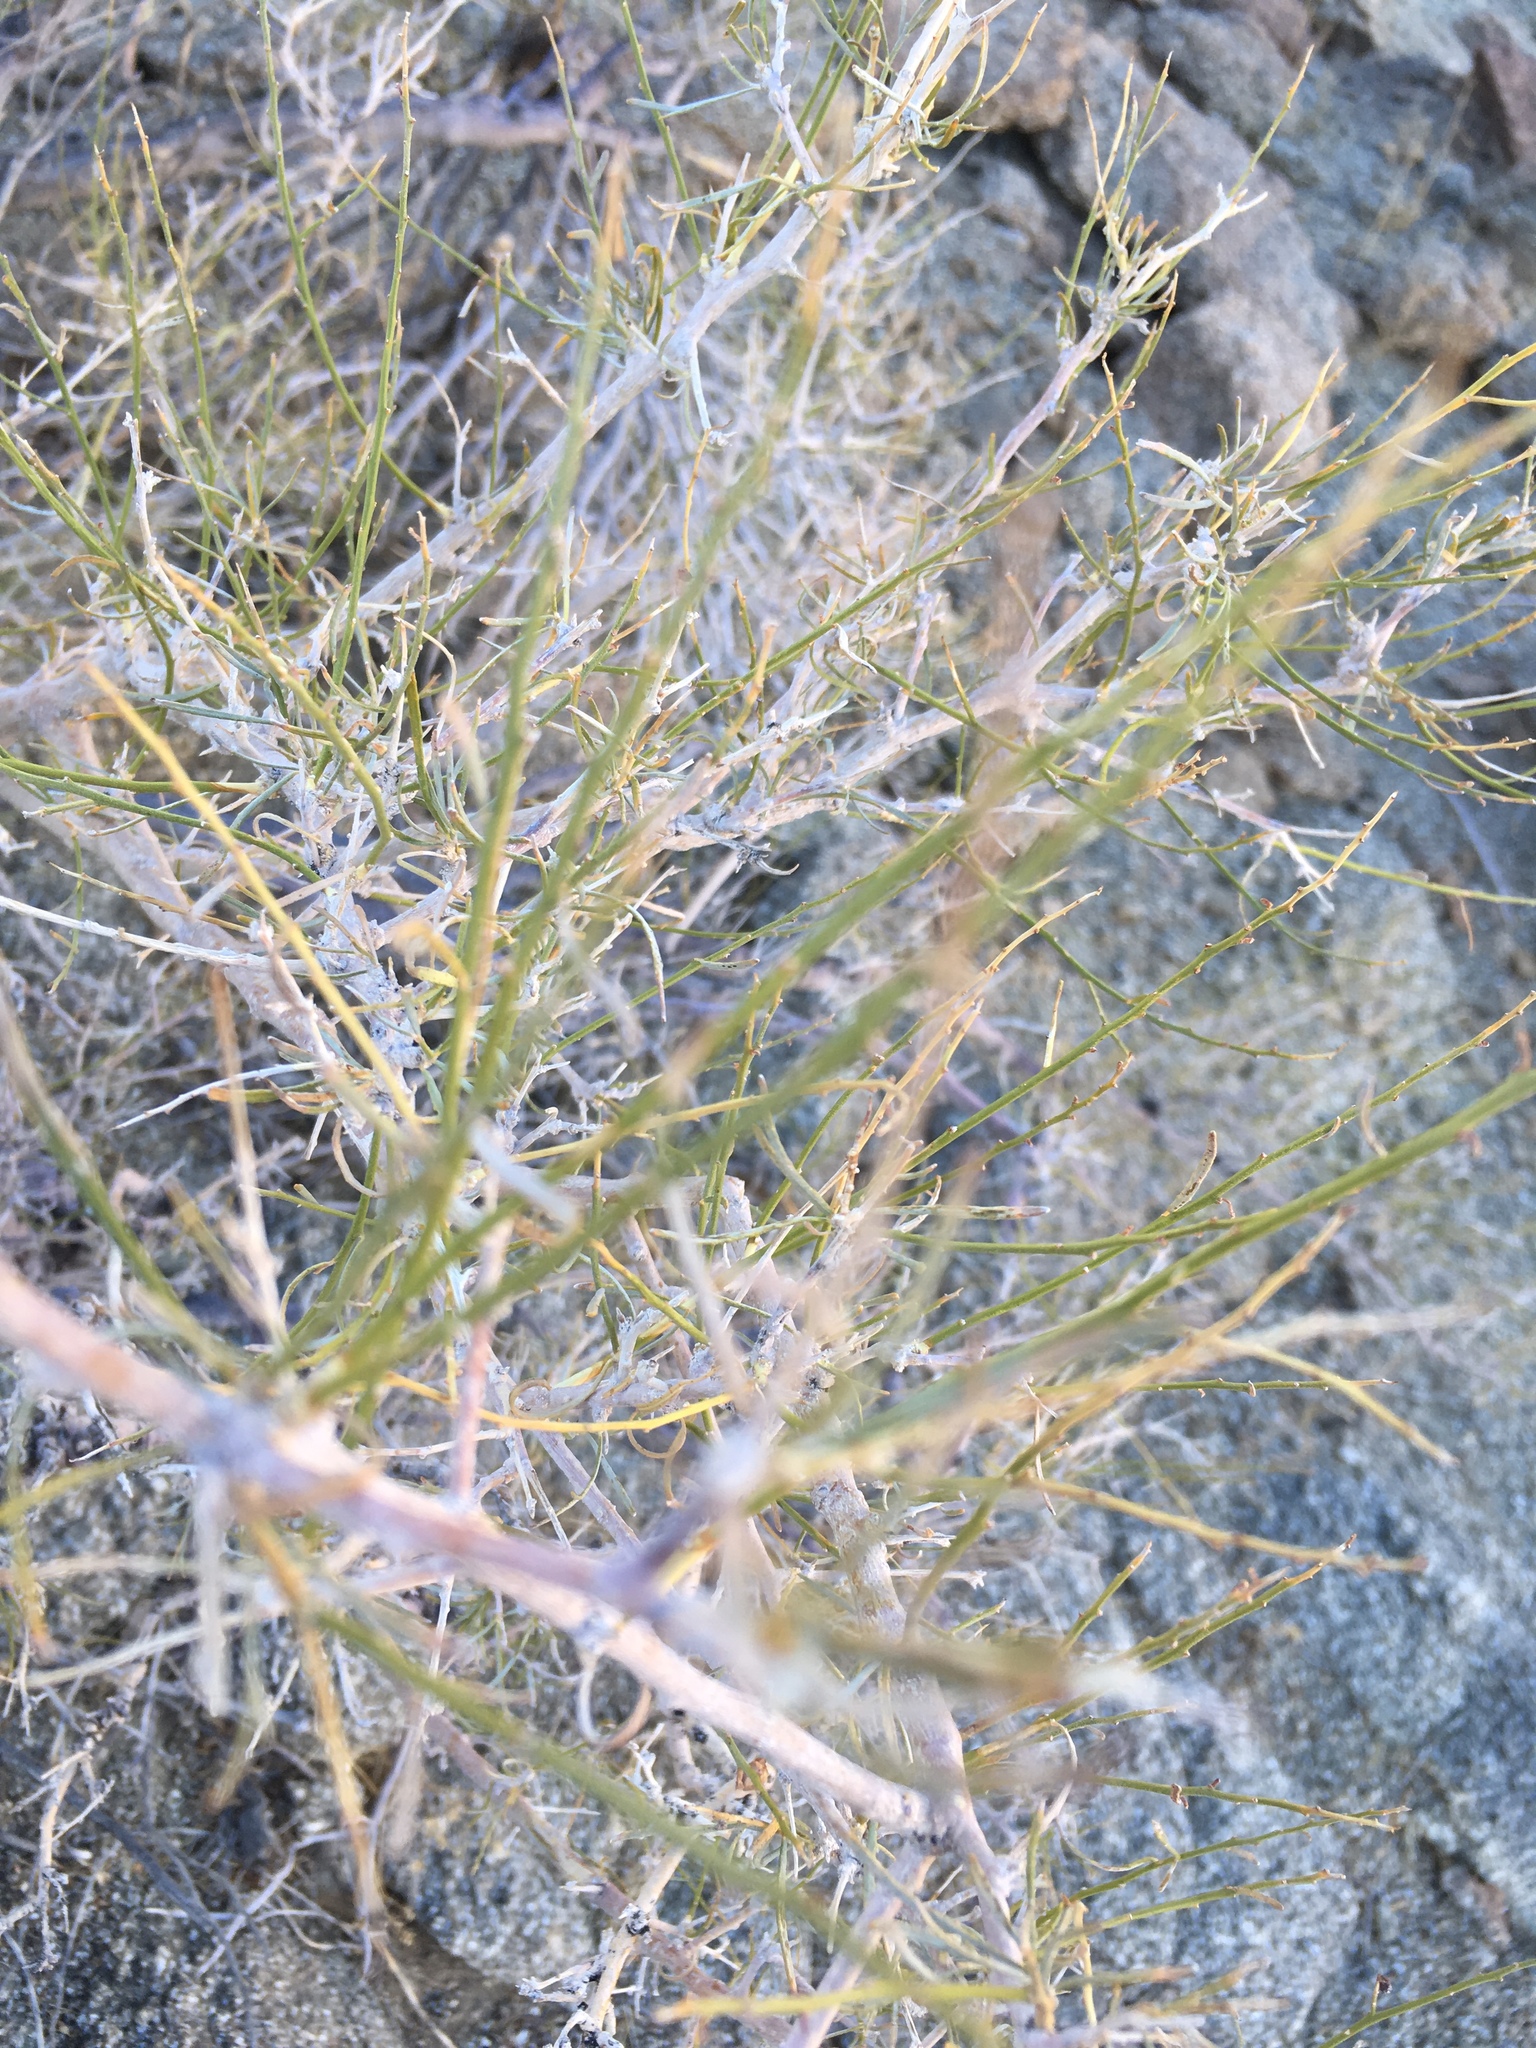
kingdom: Plantae
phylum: Tracheophyta
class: Magnoliopsida
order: Fabales
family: Fabaceae
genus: Psorothamnus
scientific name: Psorothamnus schottii
